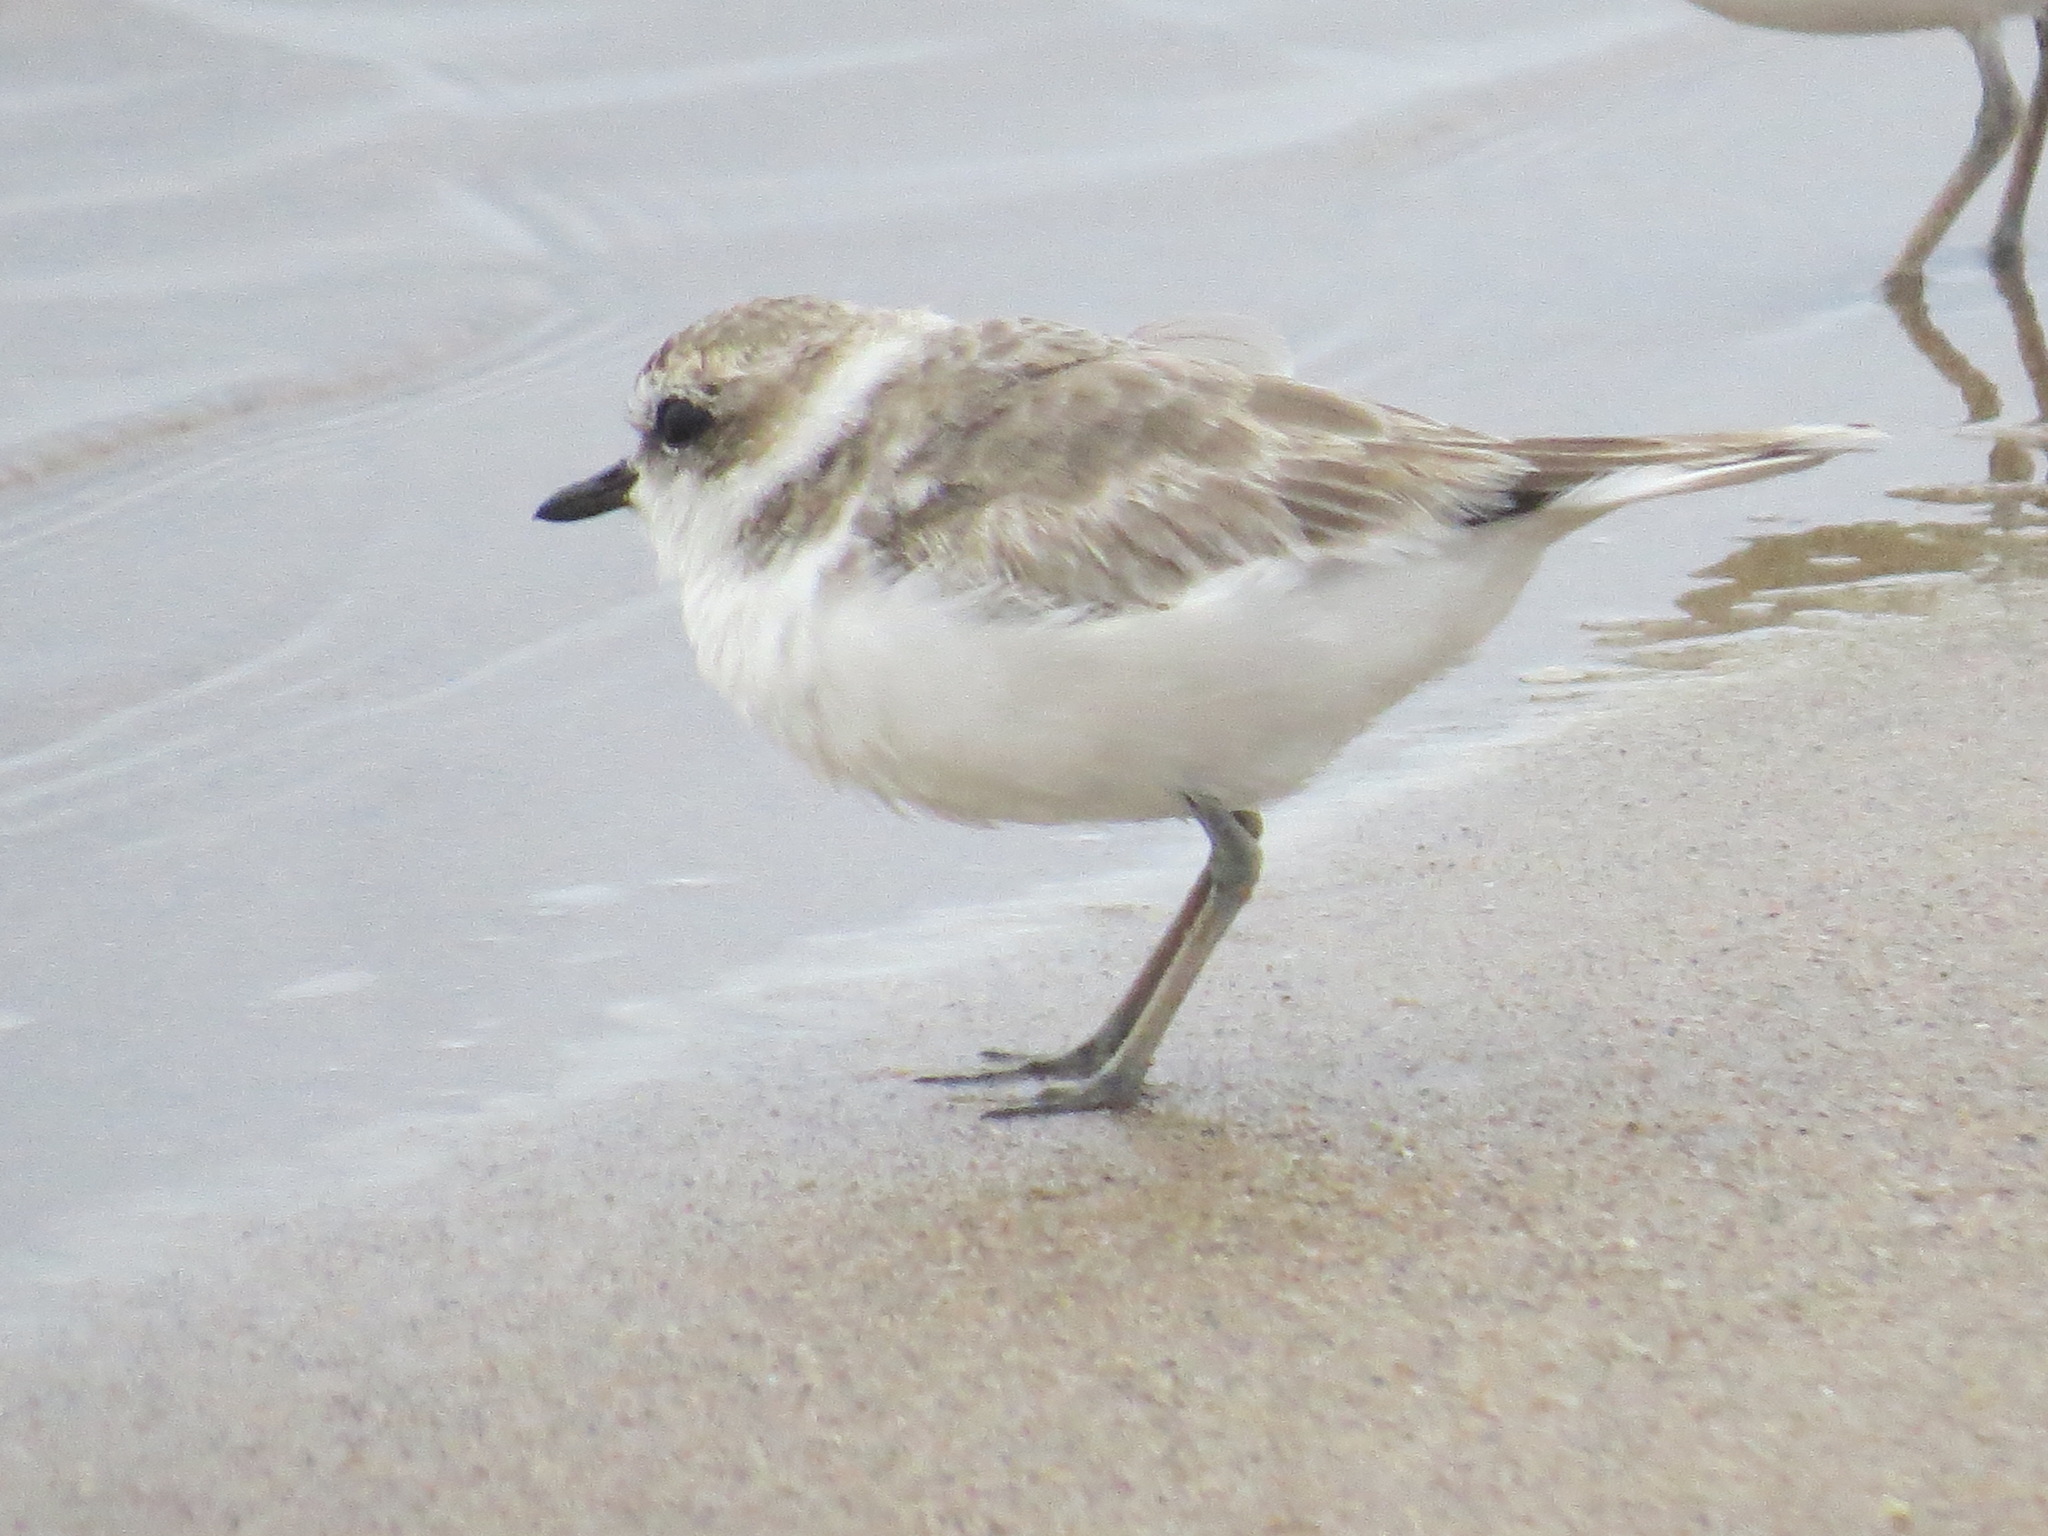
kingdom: Animalia
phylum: Chordata
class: Aves
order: Charadriiformes
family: Charadriidae
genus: Anarhynchus
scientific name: Anarhynchus
